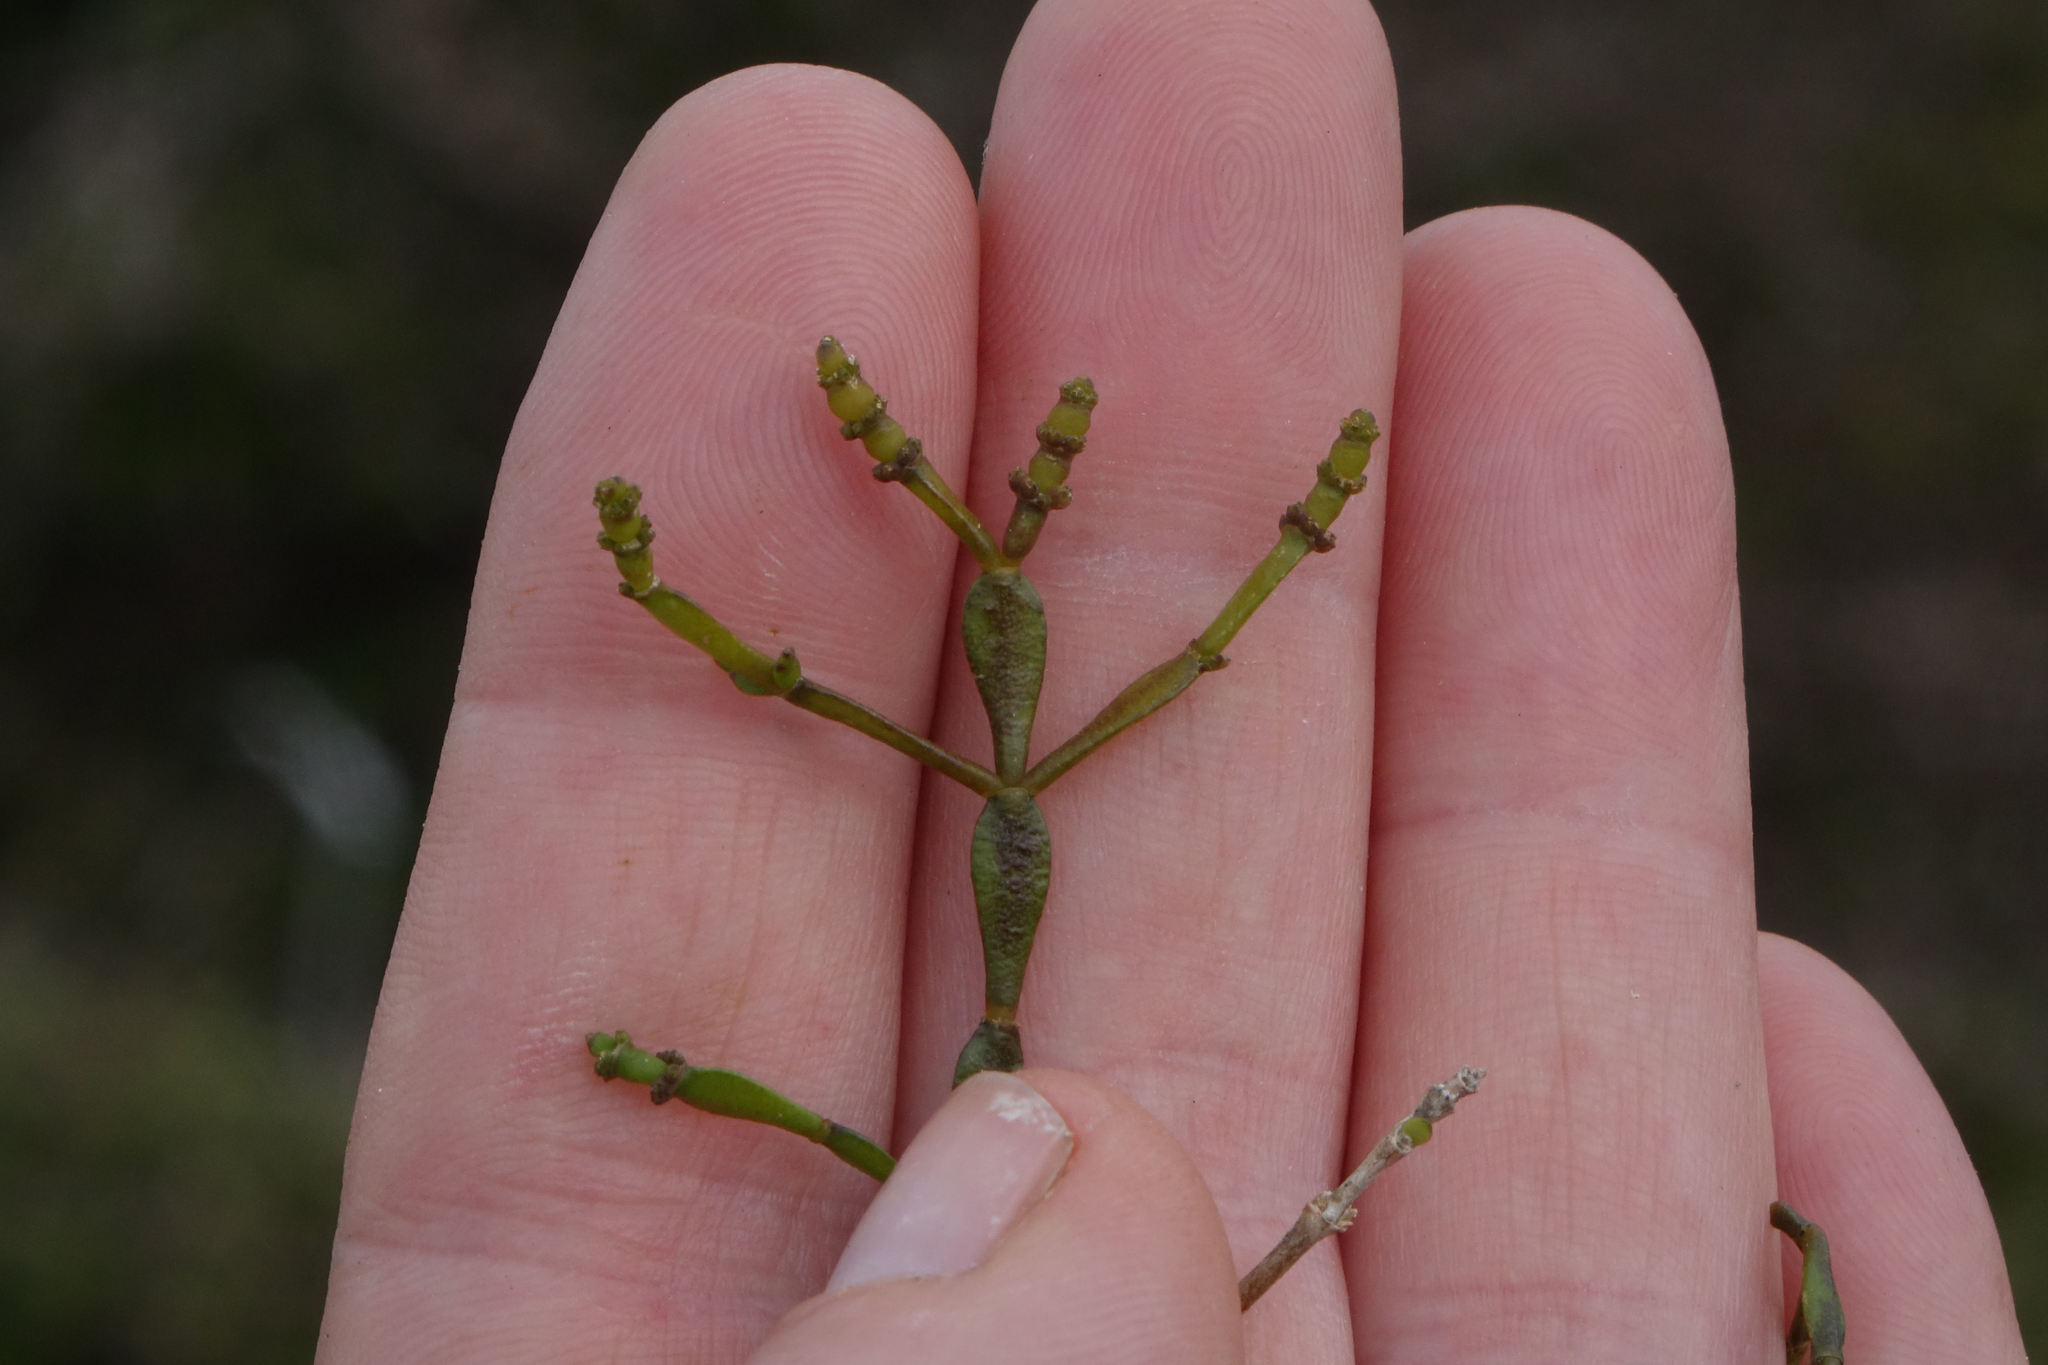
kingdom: Plantae
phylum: Tracheophyta
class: Magnoliopsida
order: Santalales
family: Viscaceae
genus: Korthalsella
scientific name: Korthalsella clavata
